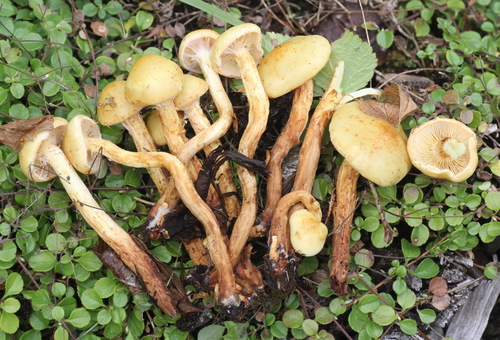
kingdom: Fungi
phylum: Basidiomycota
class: Agaricomycetes
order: Agaricales
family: Hymenogastraceae
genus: Flammula
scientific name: Flammula alnicola
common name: Alder scalycap
